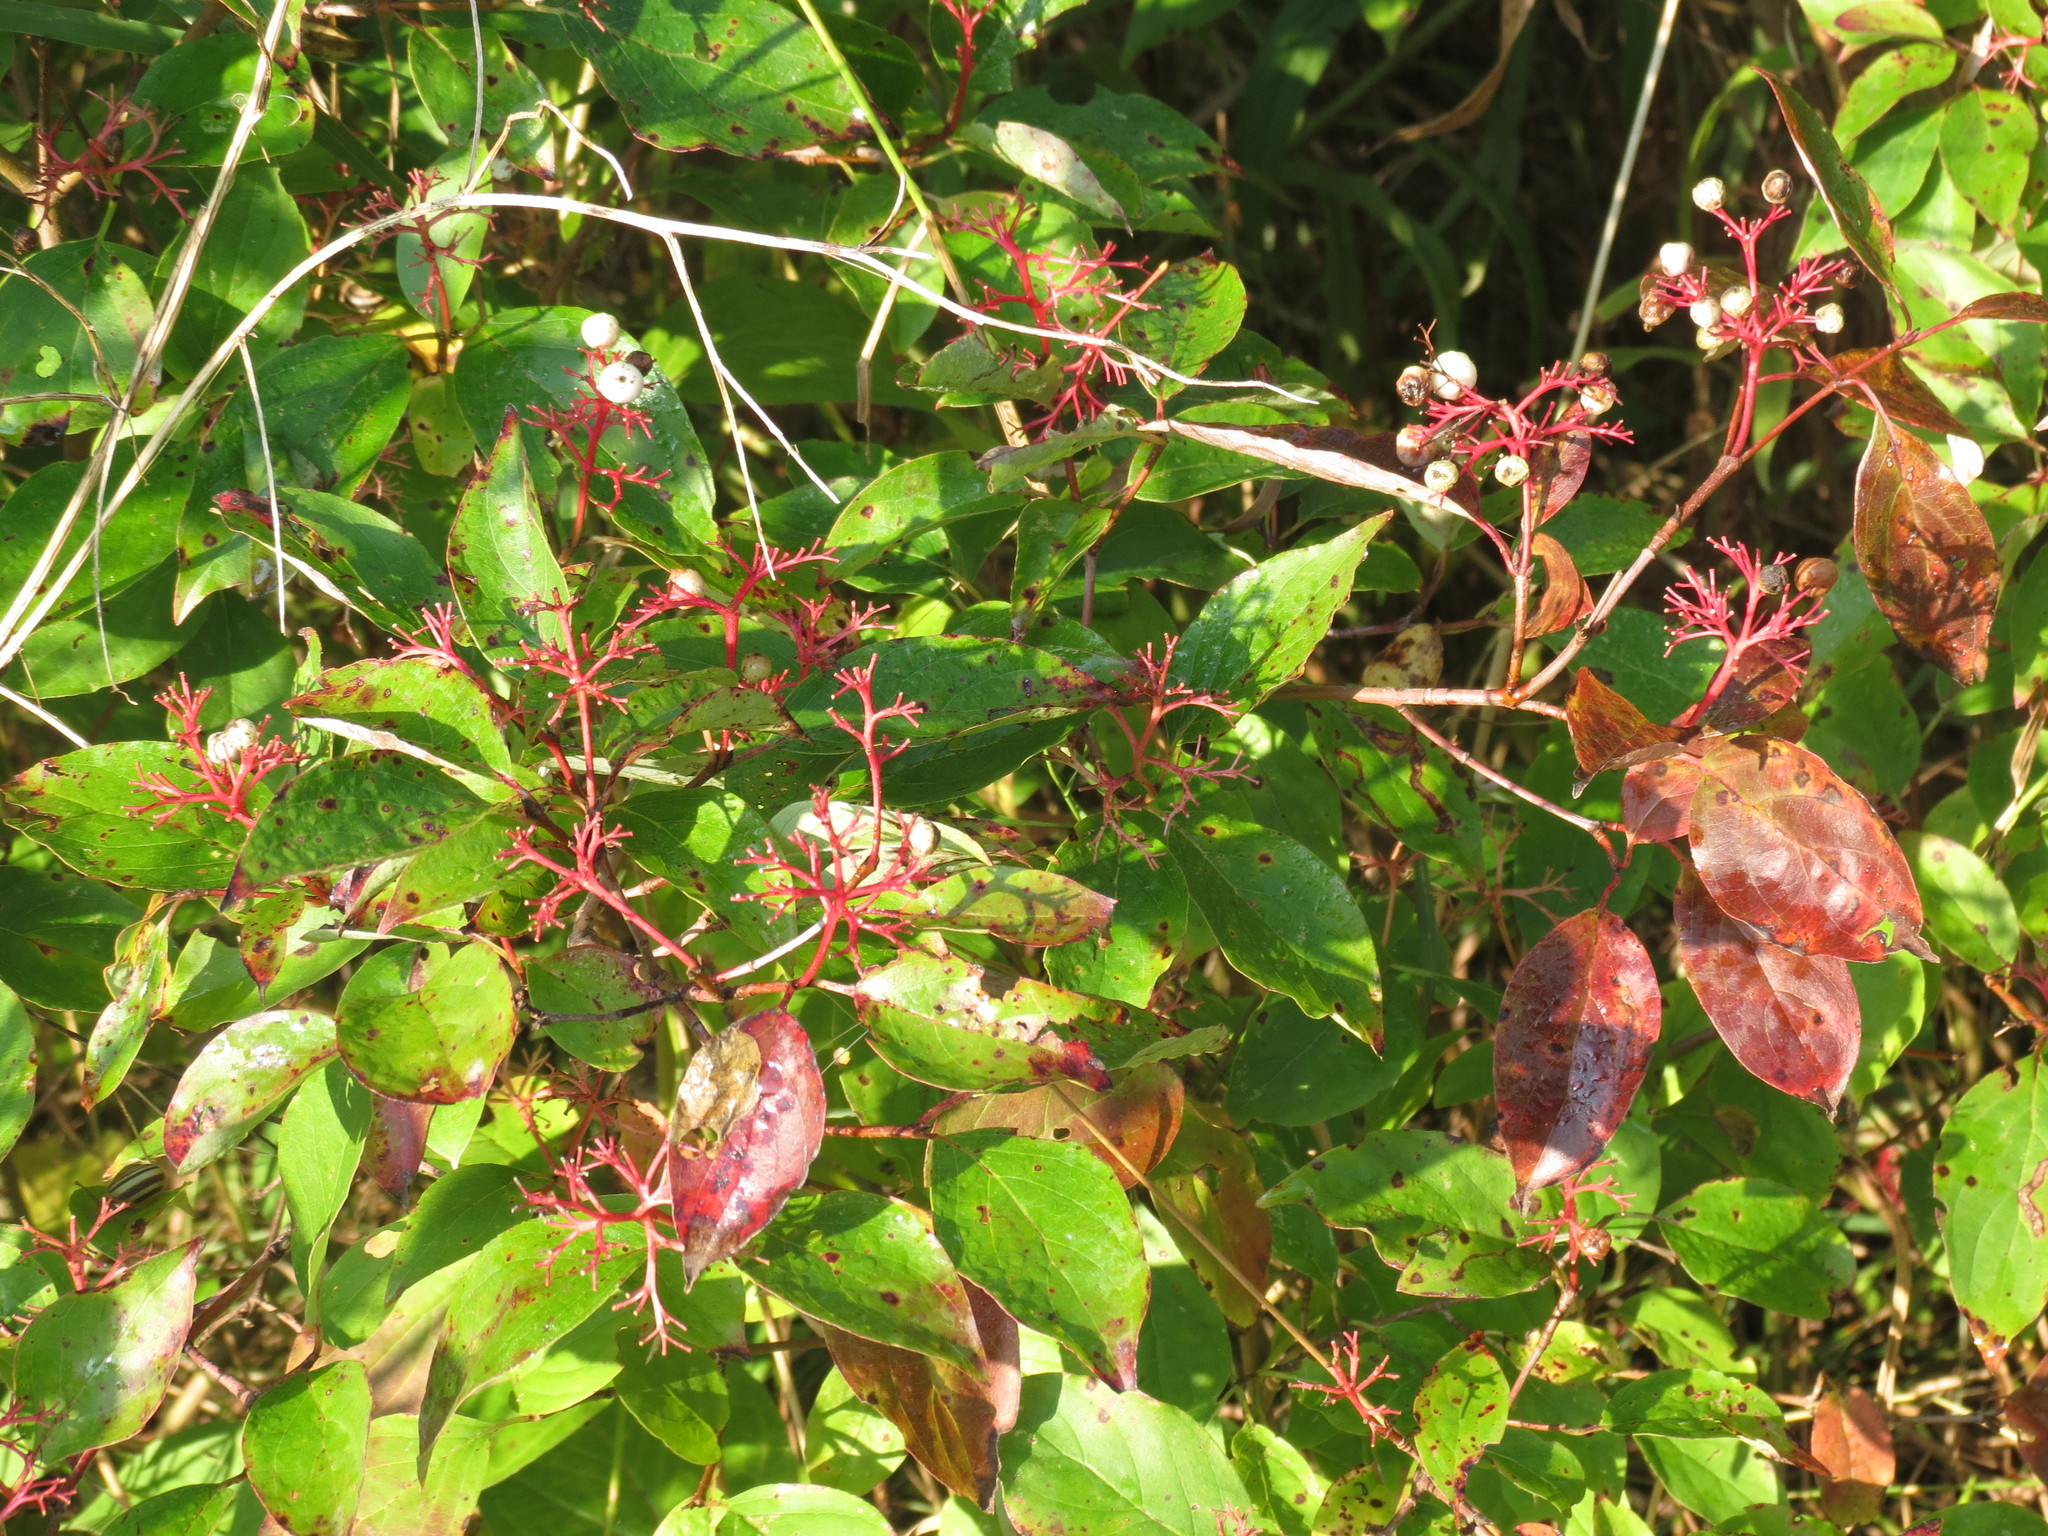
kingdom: Plantae
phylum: Tracheophyta
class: Magnoliopsida
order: Cornales
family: Cornaceae
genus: Cornus
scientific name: Cornus racemosa
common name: Panicled dogwood
